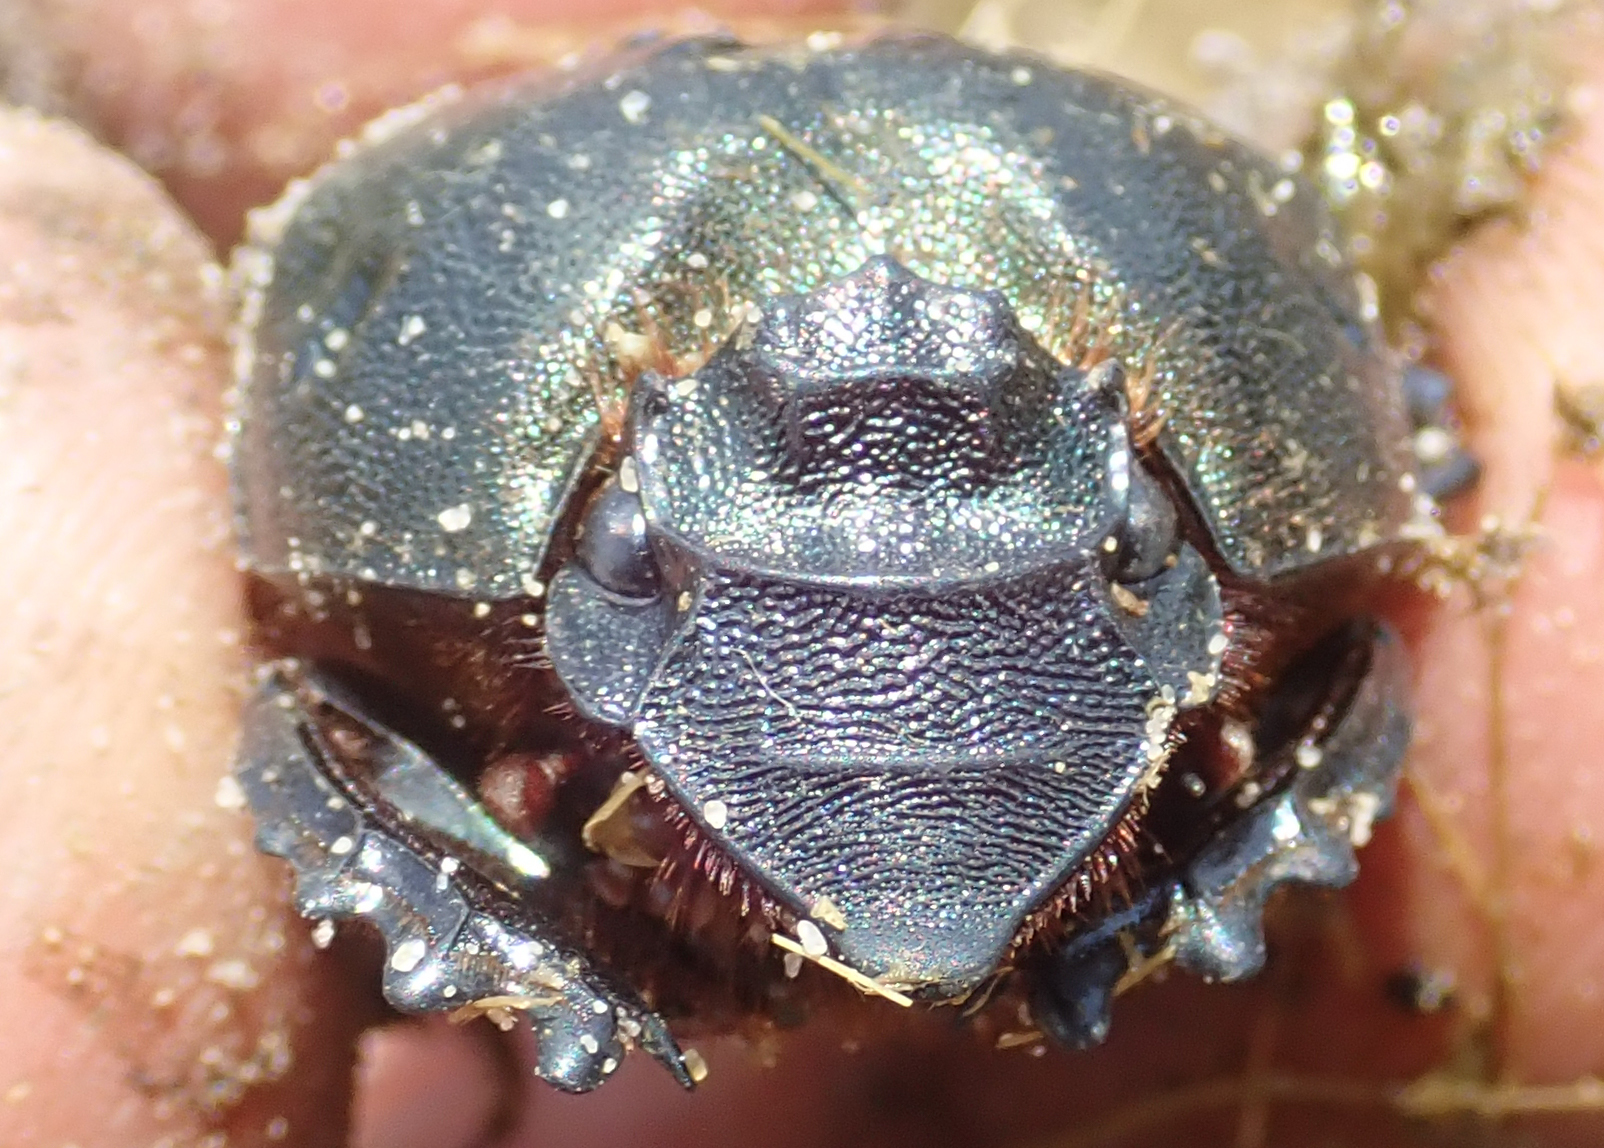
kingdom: Animalia
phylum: Arthropoda
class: Insecta
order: Coleoptera
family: Scarabaeidae
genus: Heteronitis
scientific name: Heteronitis castelnaui
